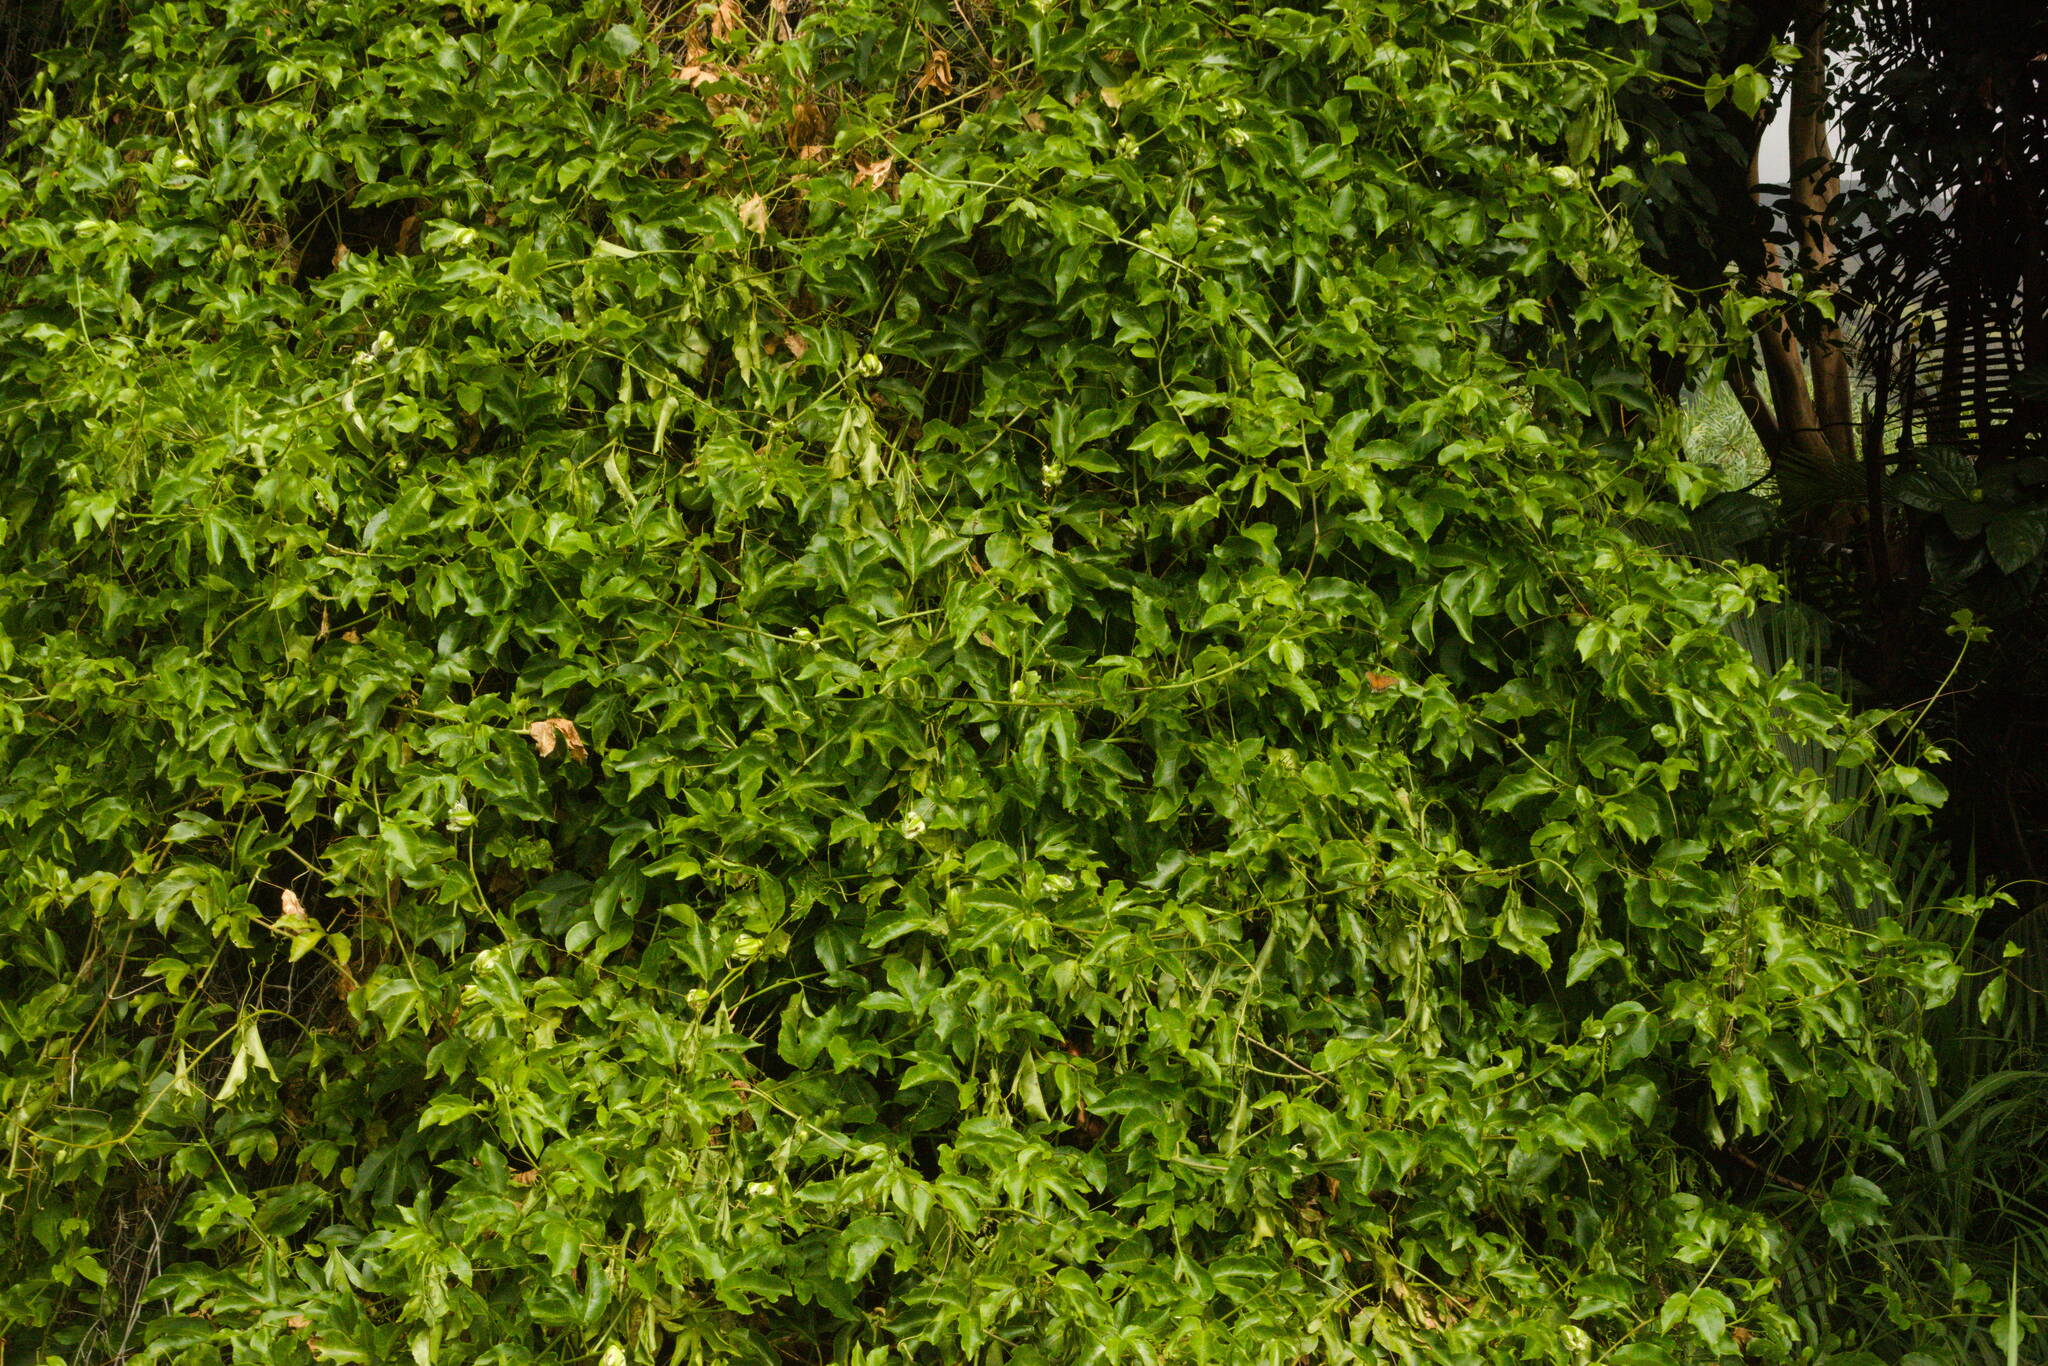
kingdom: Plantae
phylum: Tracheophyta
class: Magnoliopsida
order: Malpighiales
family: Passifloraceae
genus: Passiflora
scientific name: Passiflora edulis
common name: Purple granadilla
